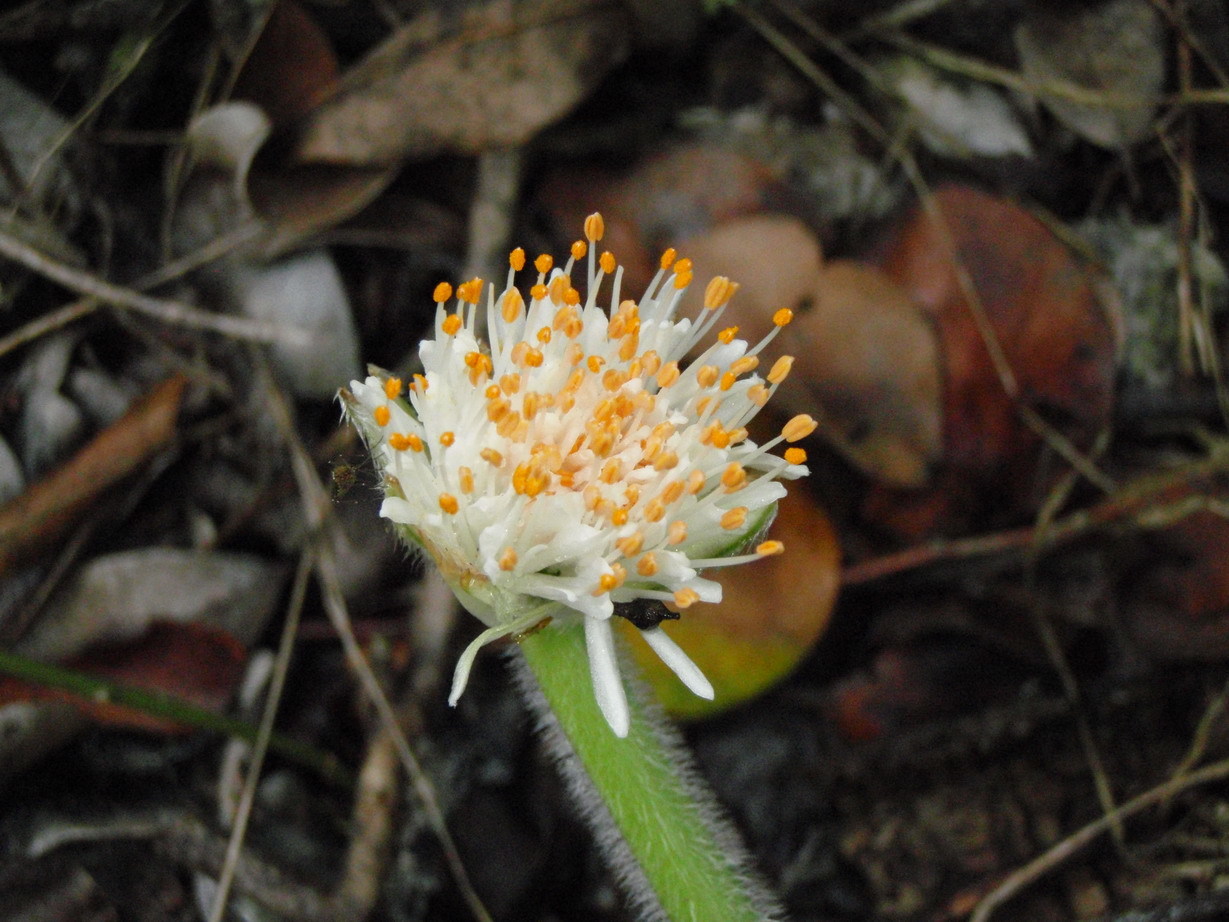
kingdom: Plantae
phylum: Tracheophyta
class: Liliopsida
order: Asparagales
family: Amaryllidaceae
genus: Haemanthus
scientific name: Haemanthus albiflos
